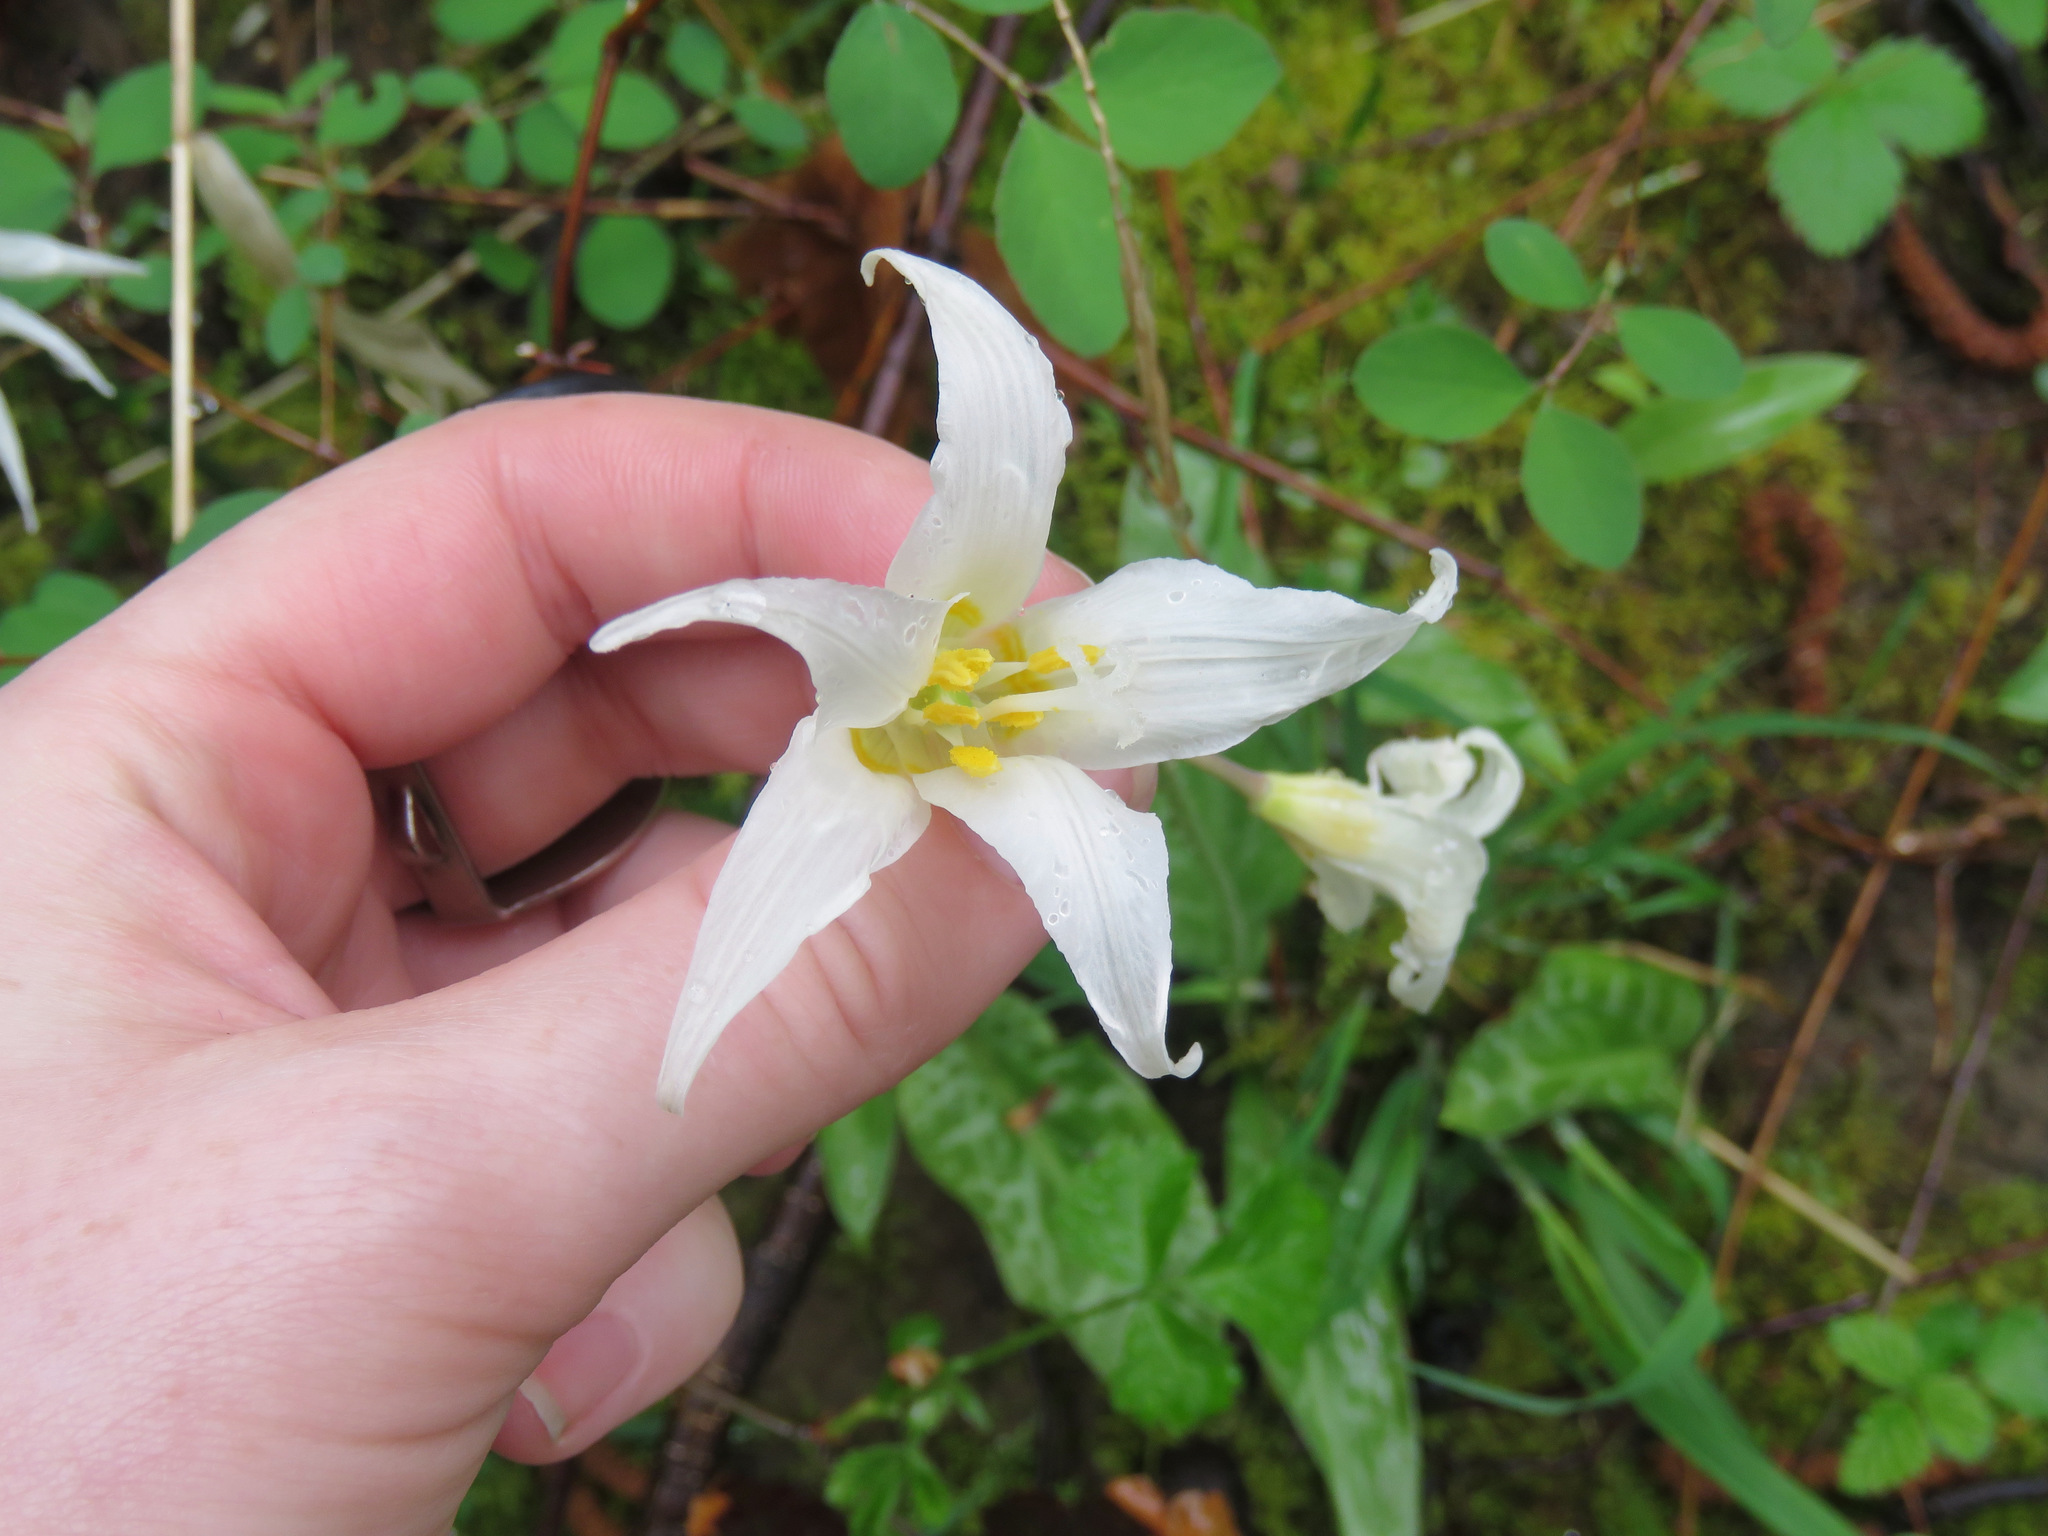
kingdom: Plantae
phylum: Tracheophyta
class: Liliopsida
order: Liliales
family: Liliaceae
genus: Erythronium
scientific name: Erythronium oregonum
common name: Giant adder's-tongue
